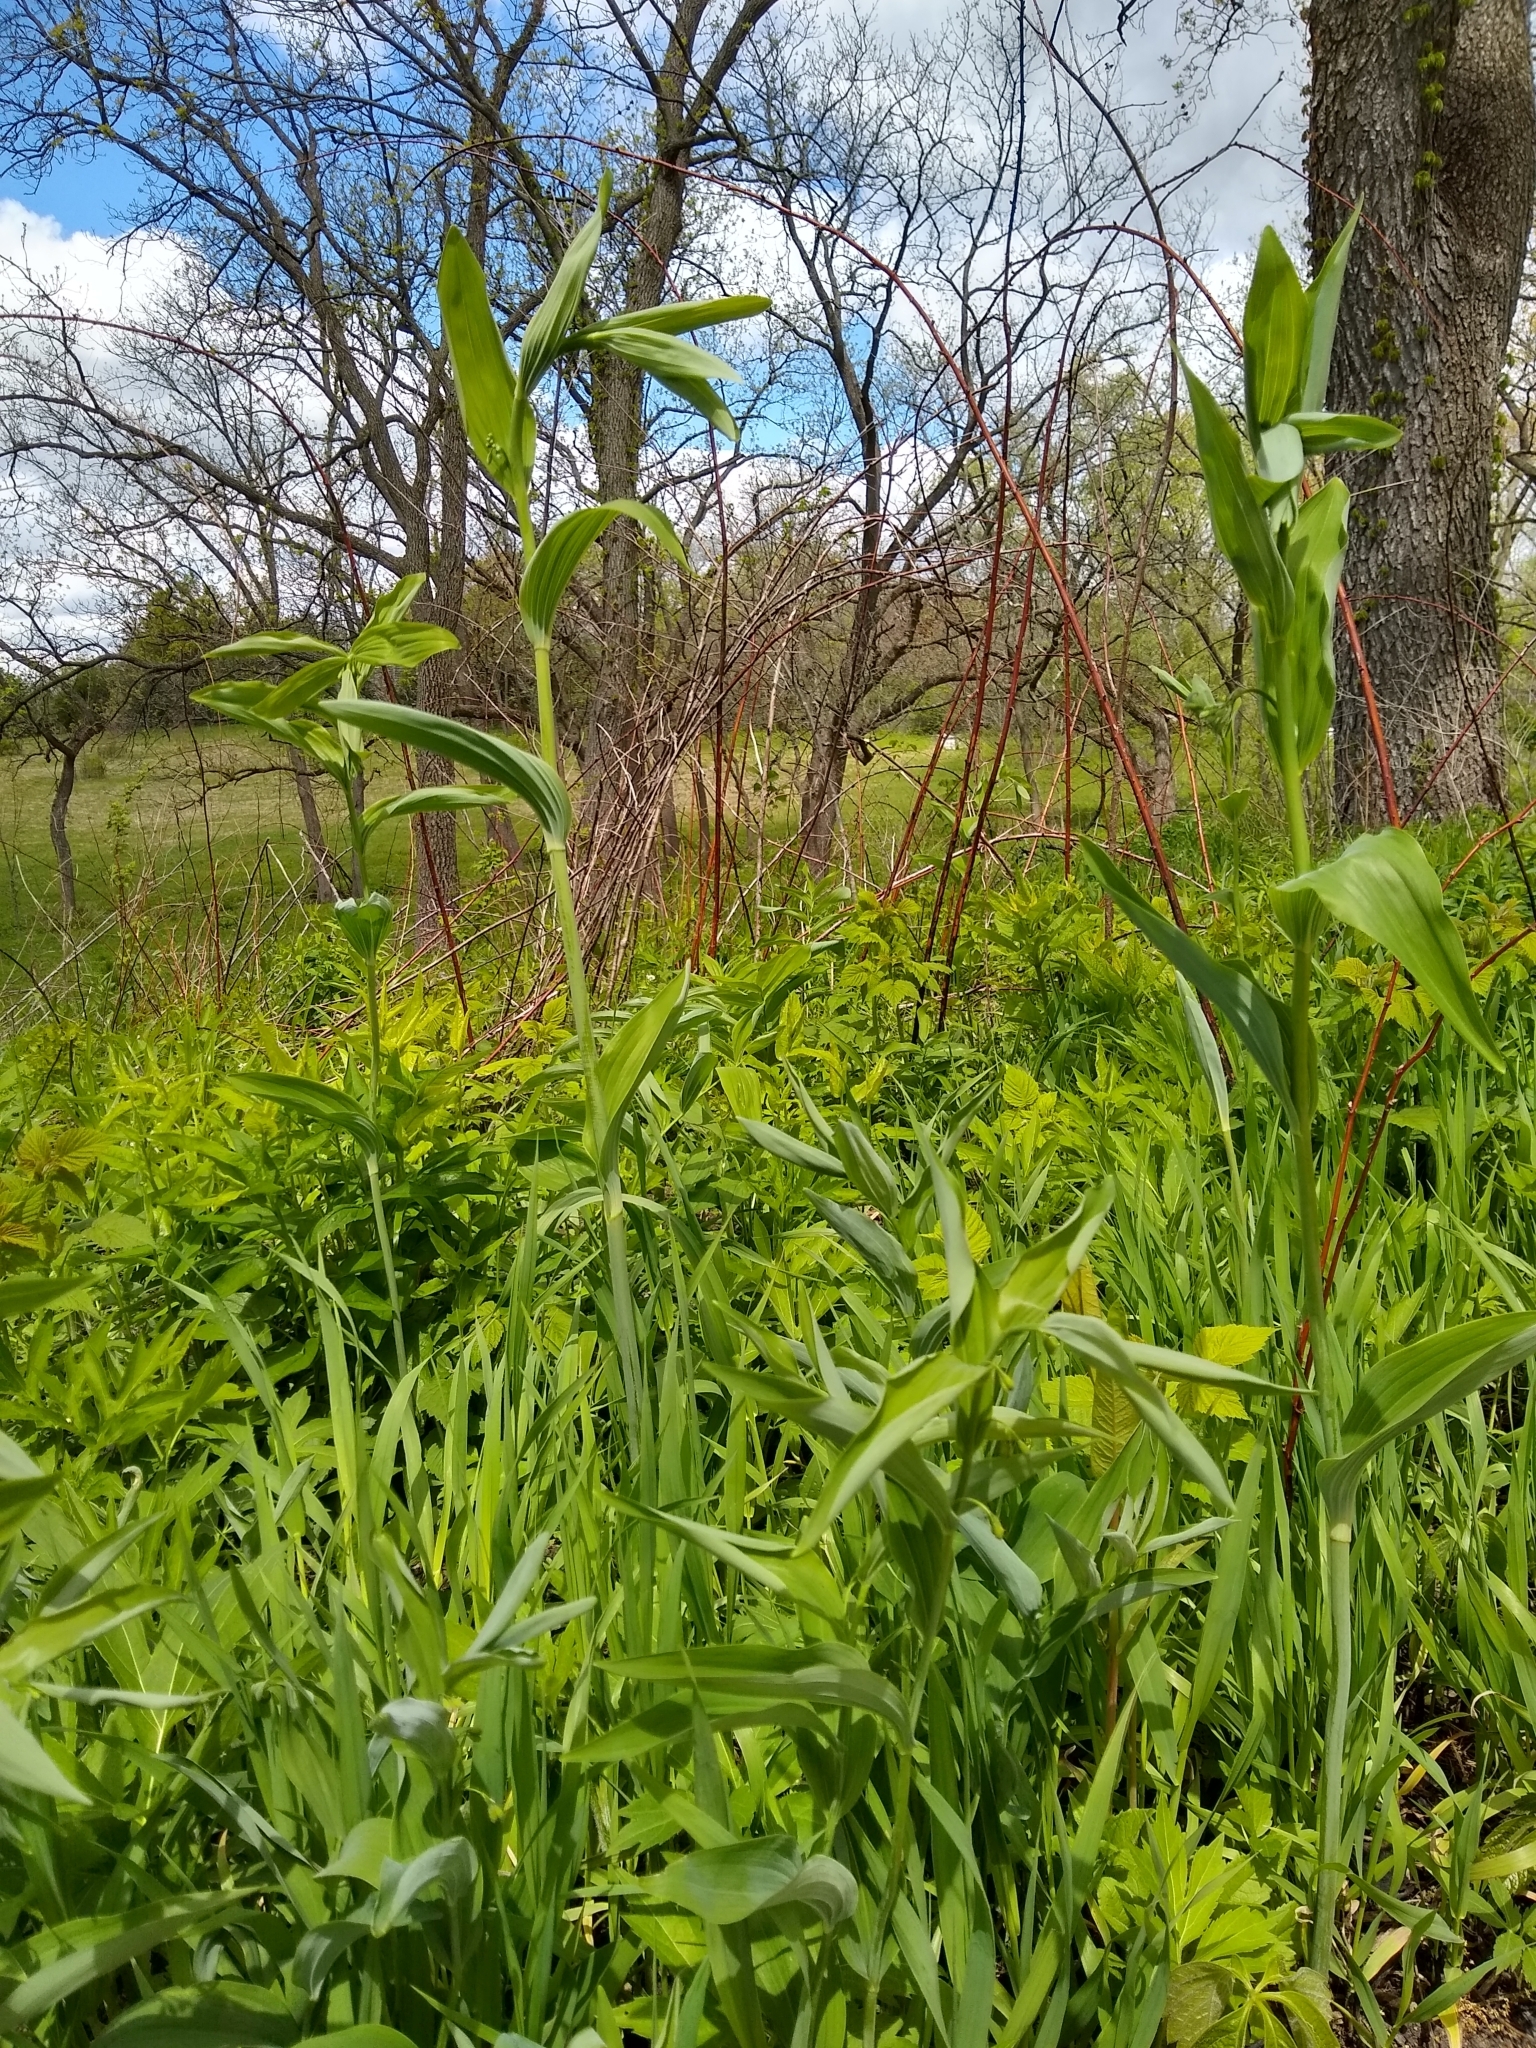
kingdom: Plantae
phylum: Tracheophyta
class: Liliopsida
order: Asparagales
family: Asparagaceae
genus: Polygonatum
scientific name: Polygonatum biflorum
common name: American solomon's-seal
